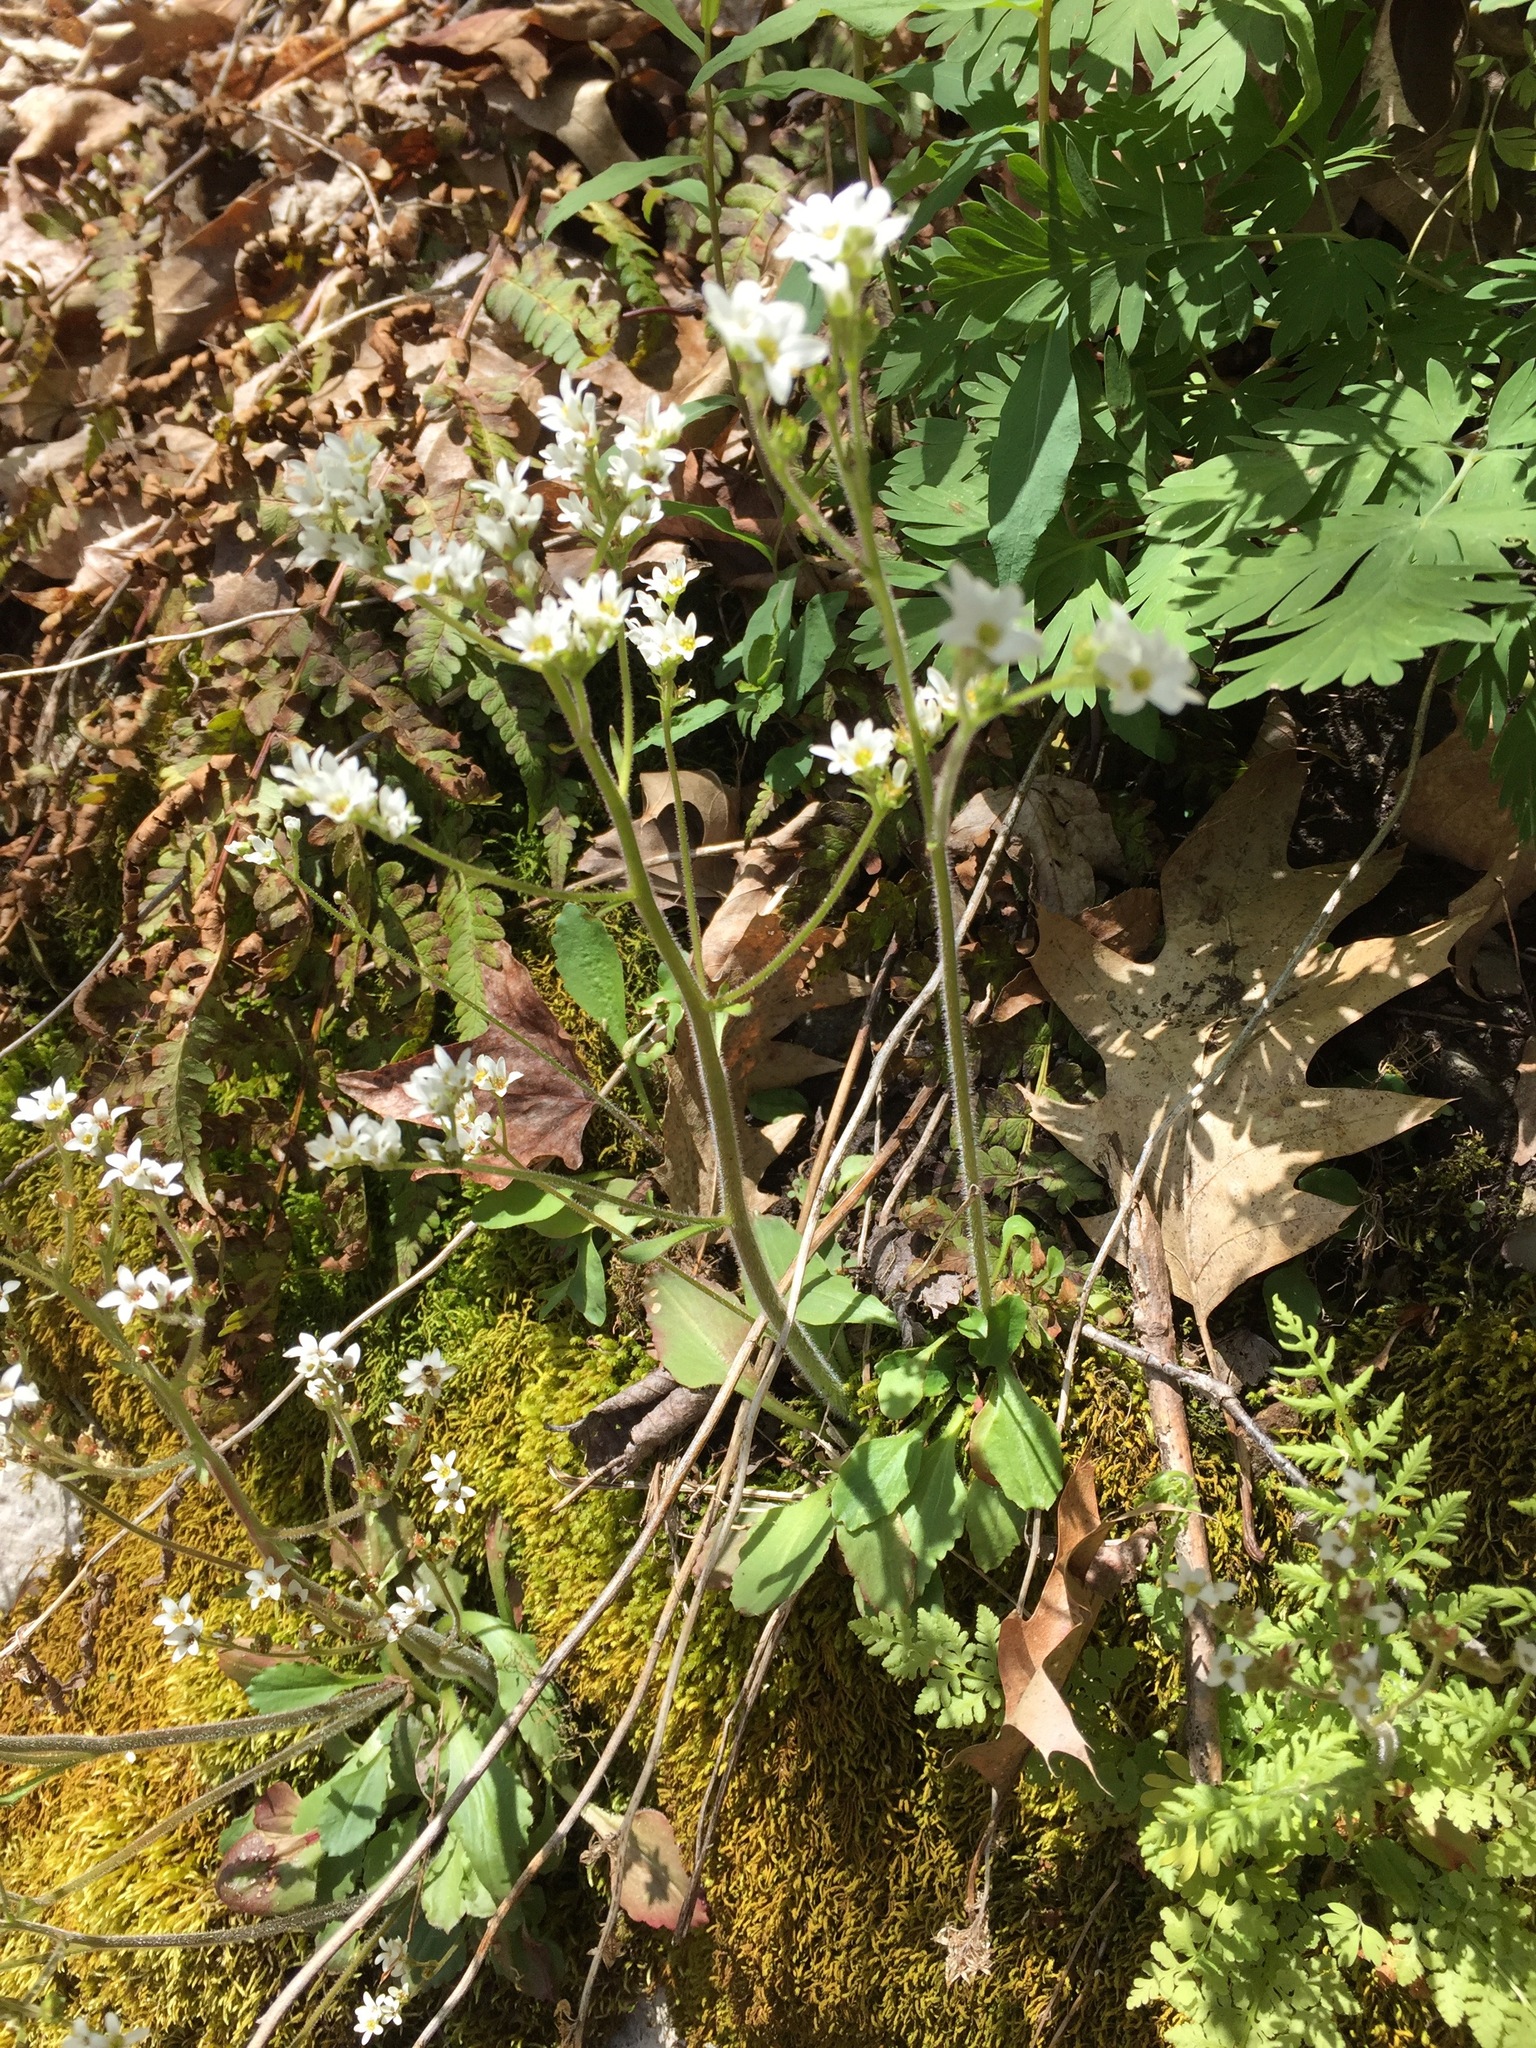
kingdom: Plantae
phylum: Tracheophyta
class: Magnoliopsida
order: Saxifragales
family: Saxifragaceae
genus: Micranthes
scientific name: Micranthes virginiensis
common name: Early saxifrage
